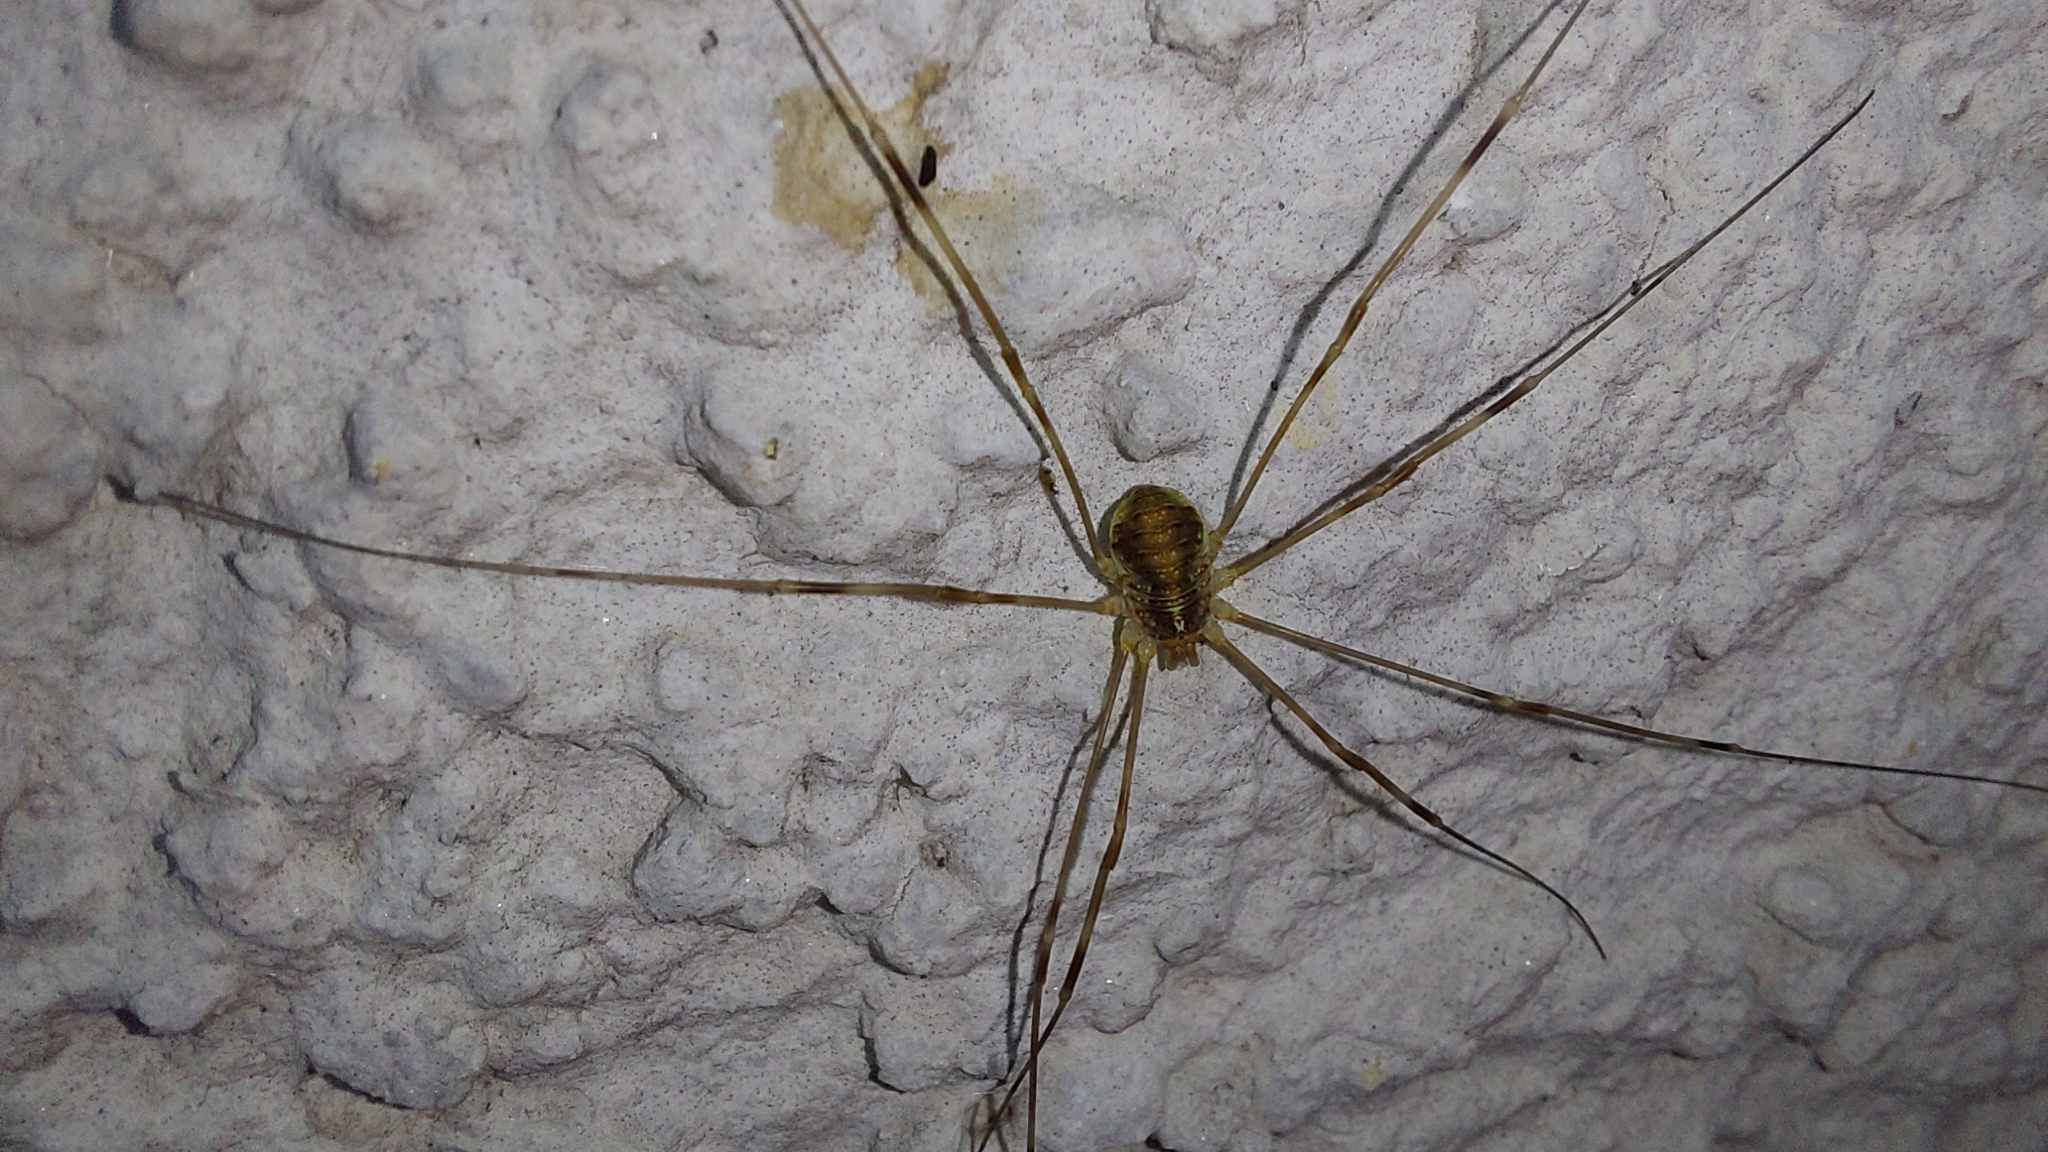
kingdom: Animalia
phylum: Arthropoda
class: Arachnida
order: Opiliones
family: Phalangiidae
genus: Opilio
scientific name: Opilio canestrinii
